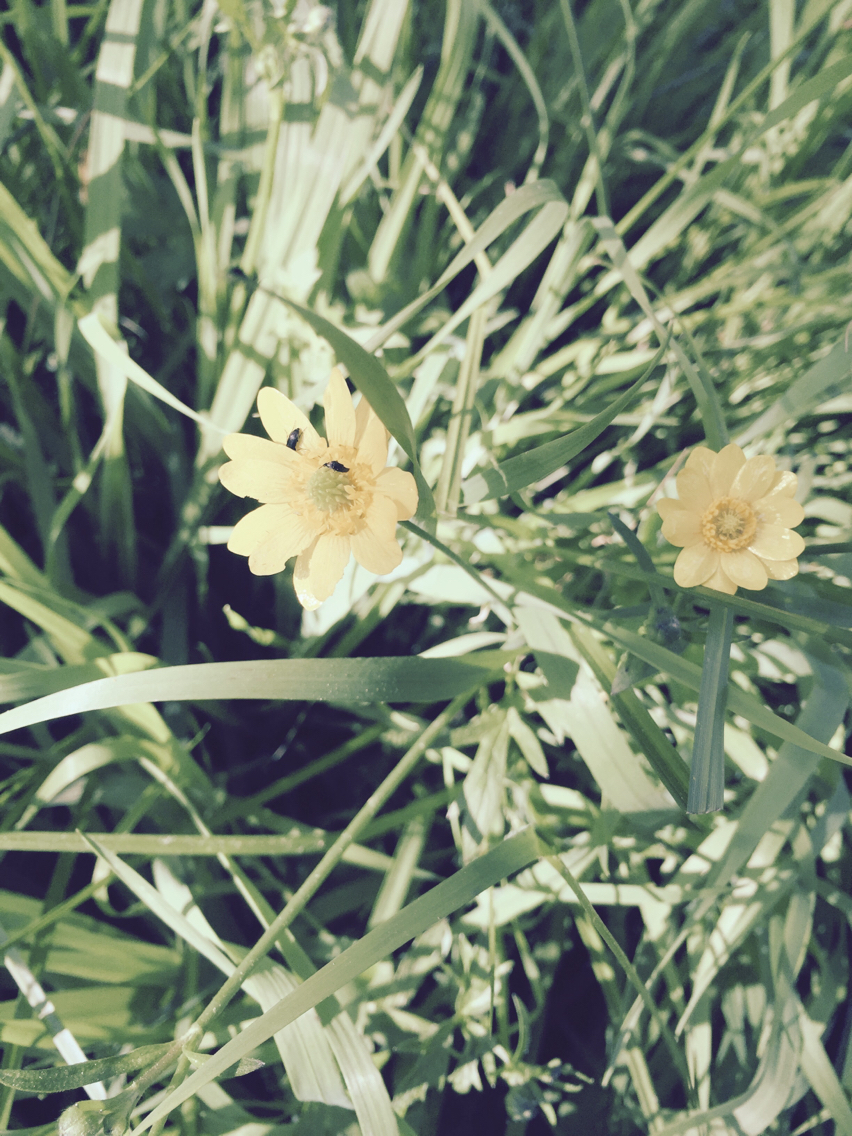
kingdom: Plantae
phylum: Tracheophyta
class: Magnoliopsida
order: Ranunculales
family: Ranunculaceae
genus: Ranunculus
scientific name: Ranunculus californicus
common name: California buttercup
